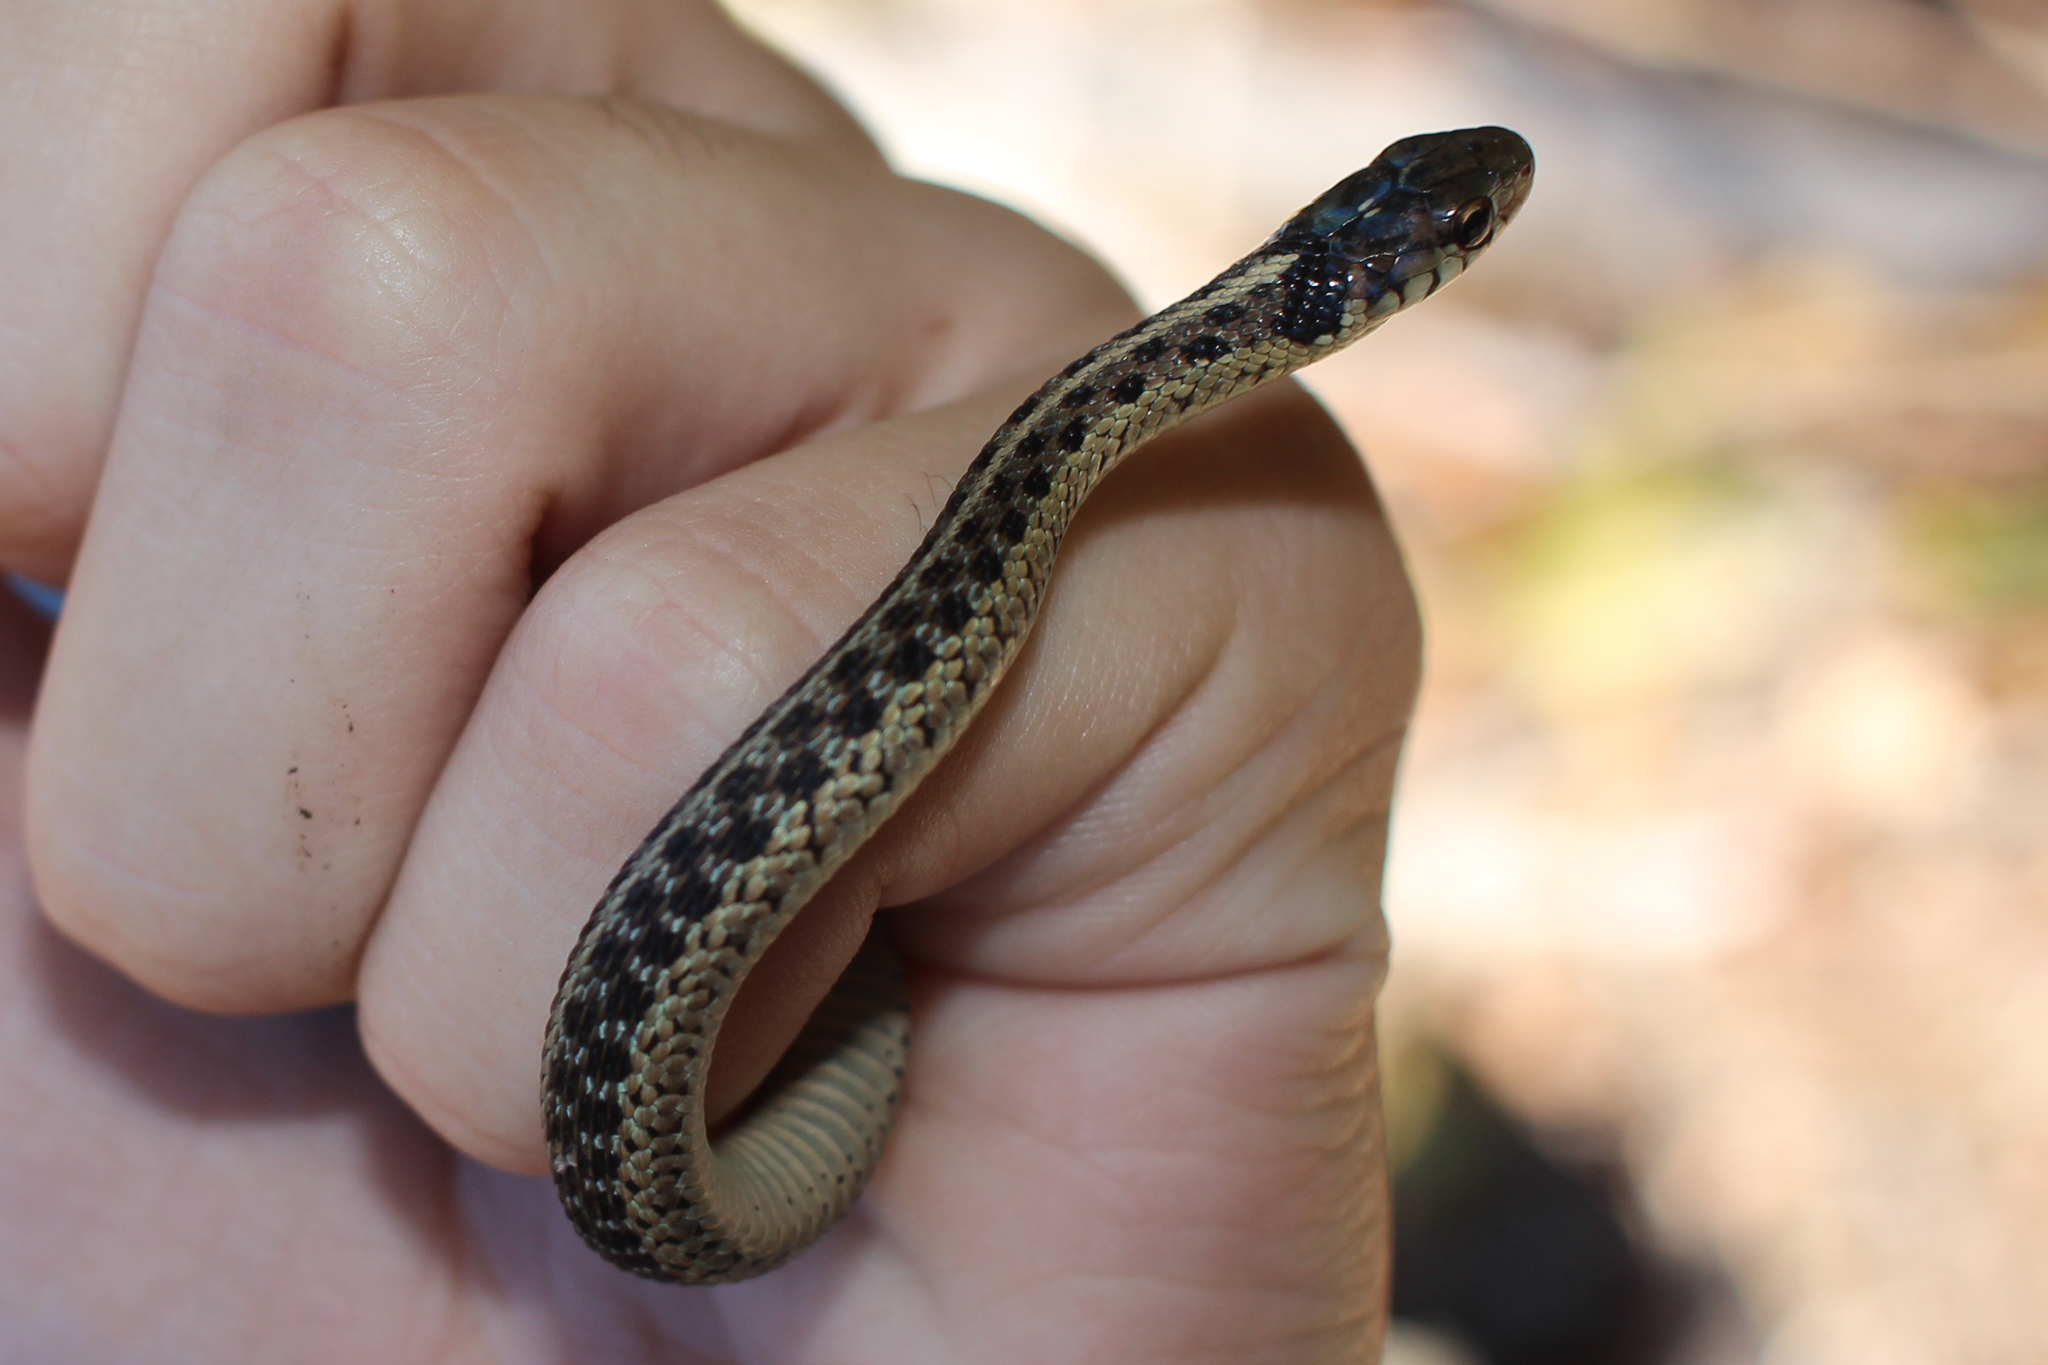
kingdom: Animalia
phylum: Chordata
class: Squamata
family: Colubridae
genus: Thamnophis
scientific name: Thamnophis sirtalis
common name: Common garter snake
